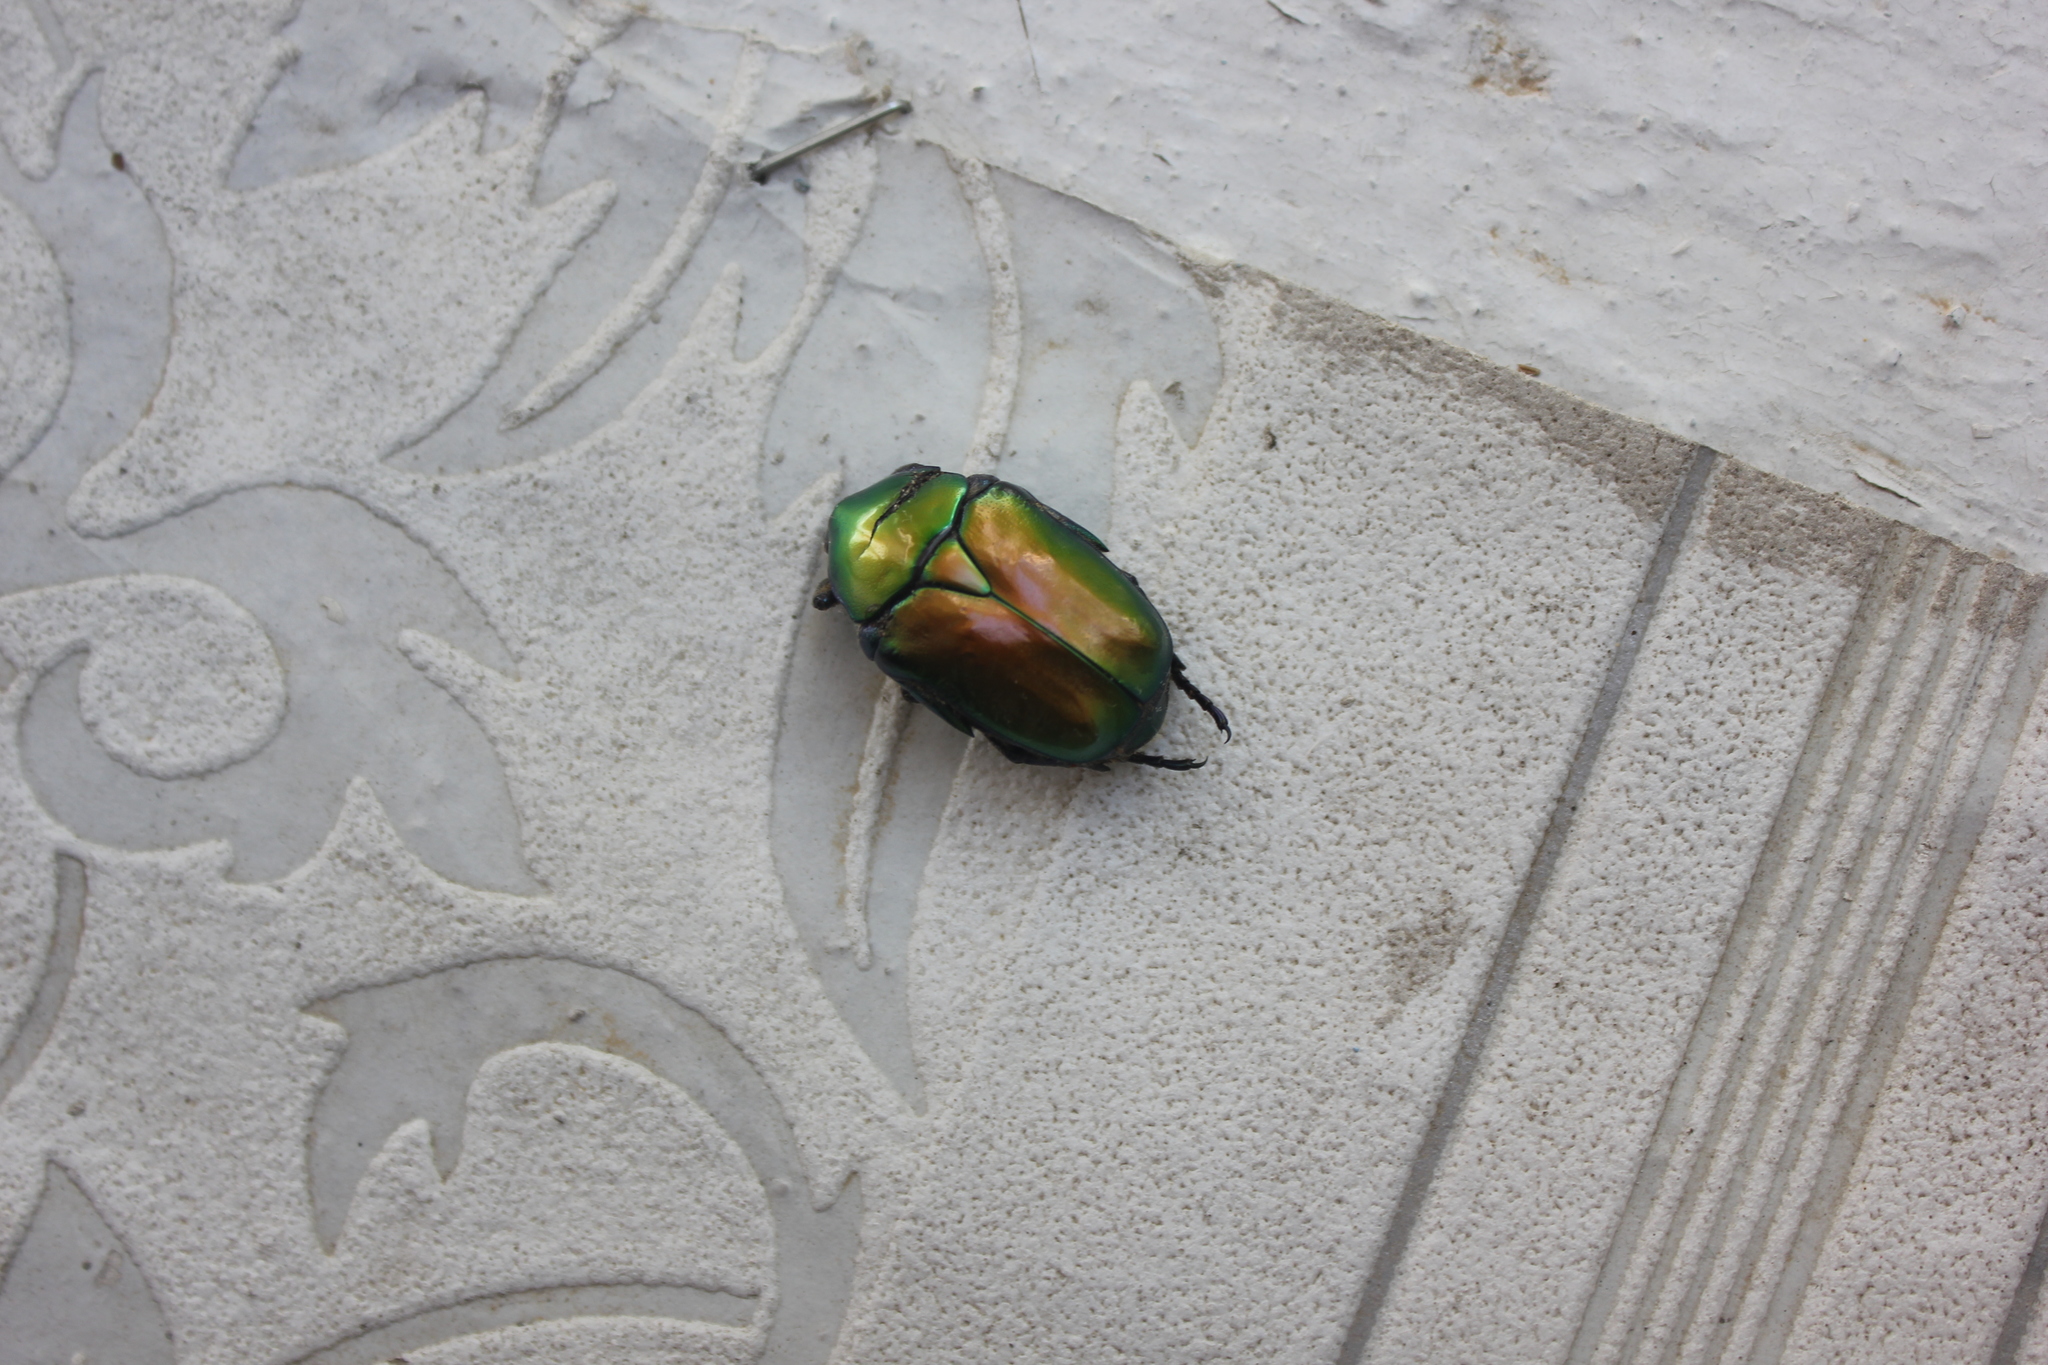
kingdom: Animalia
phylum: Arthropoda
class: Insecta
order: Coleoptera
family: Scarabaeidae
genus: Protaetia
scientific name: Protaetia speciosa
